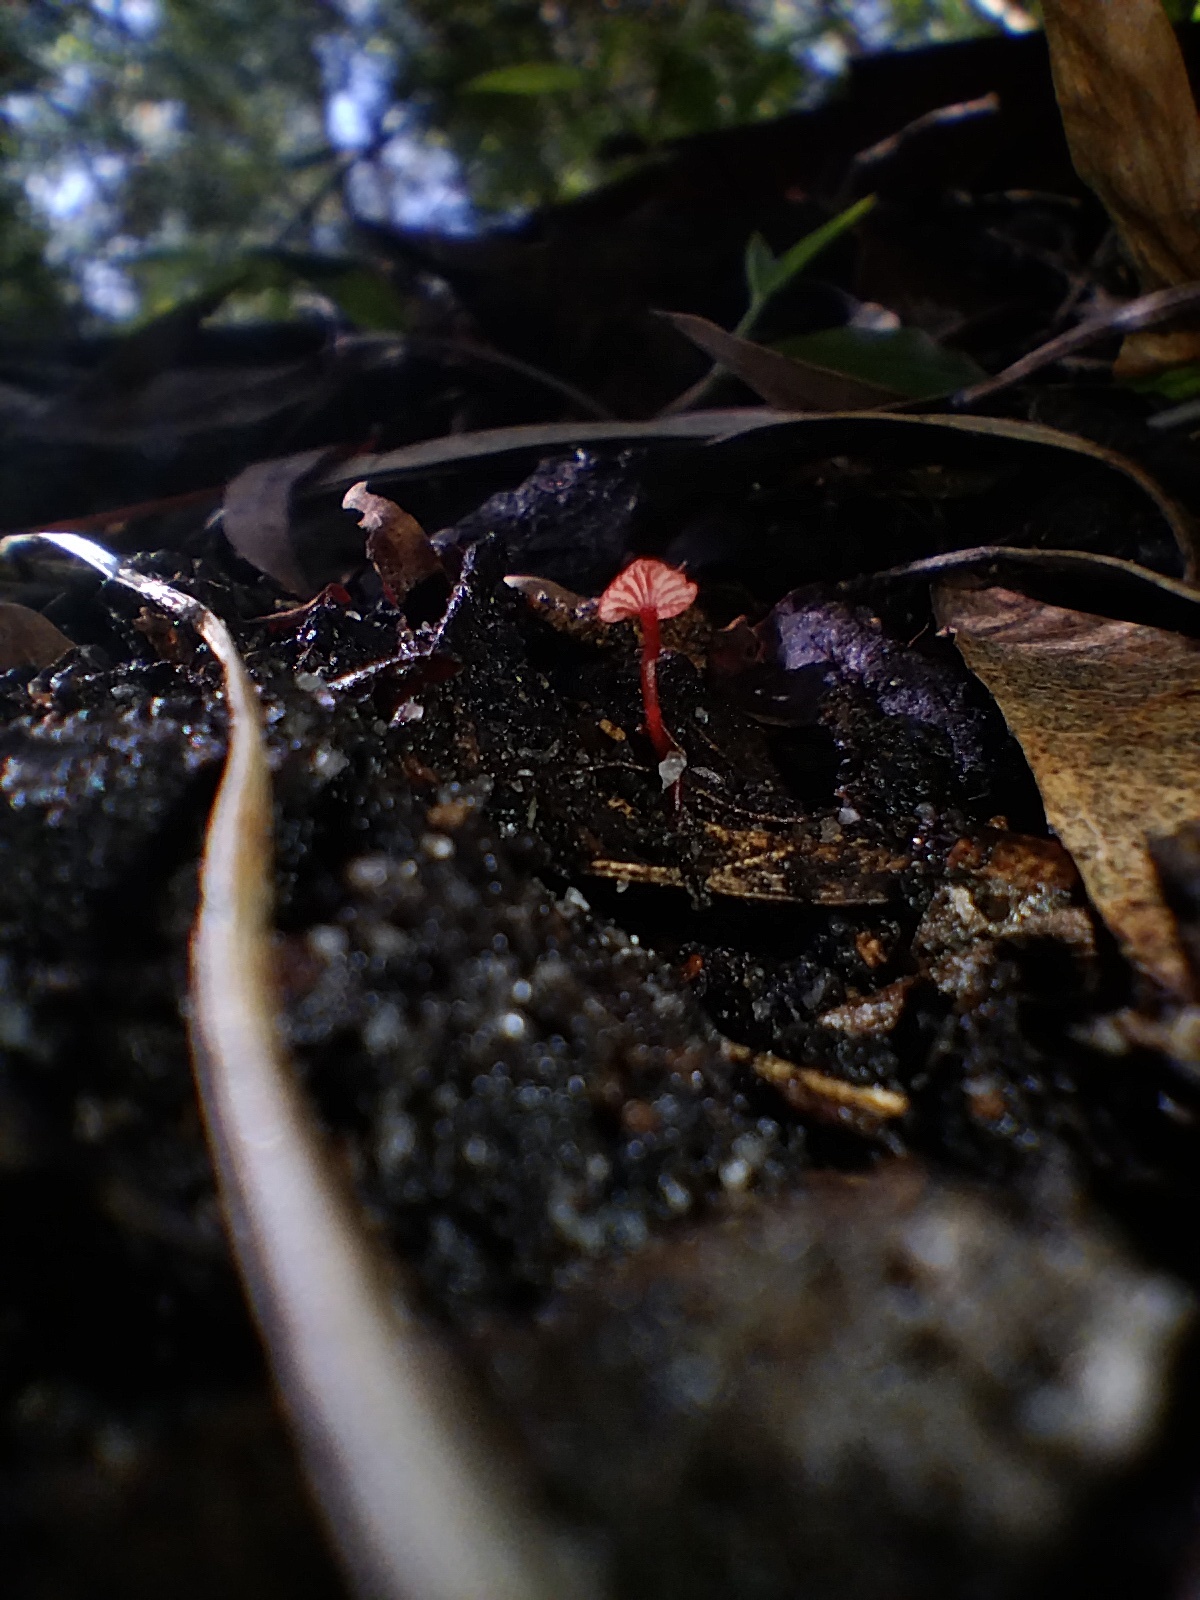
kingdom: Fungi
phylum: Basidiomycota
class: Agaricomycetes
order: Agaricales
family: Mycenaceae
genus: Cruentomycena
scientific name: Cruentomycena viscidocruenta
